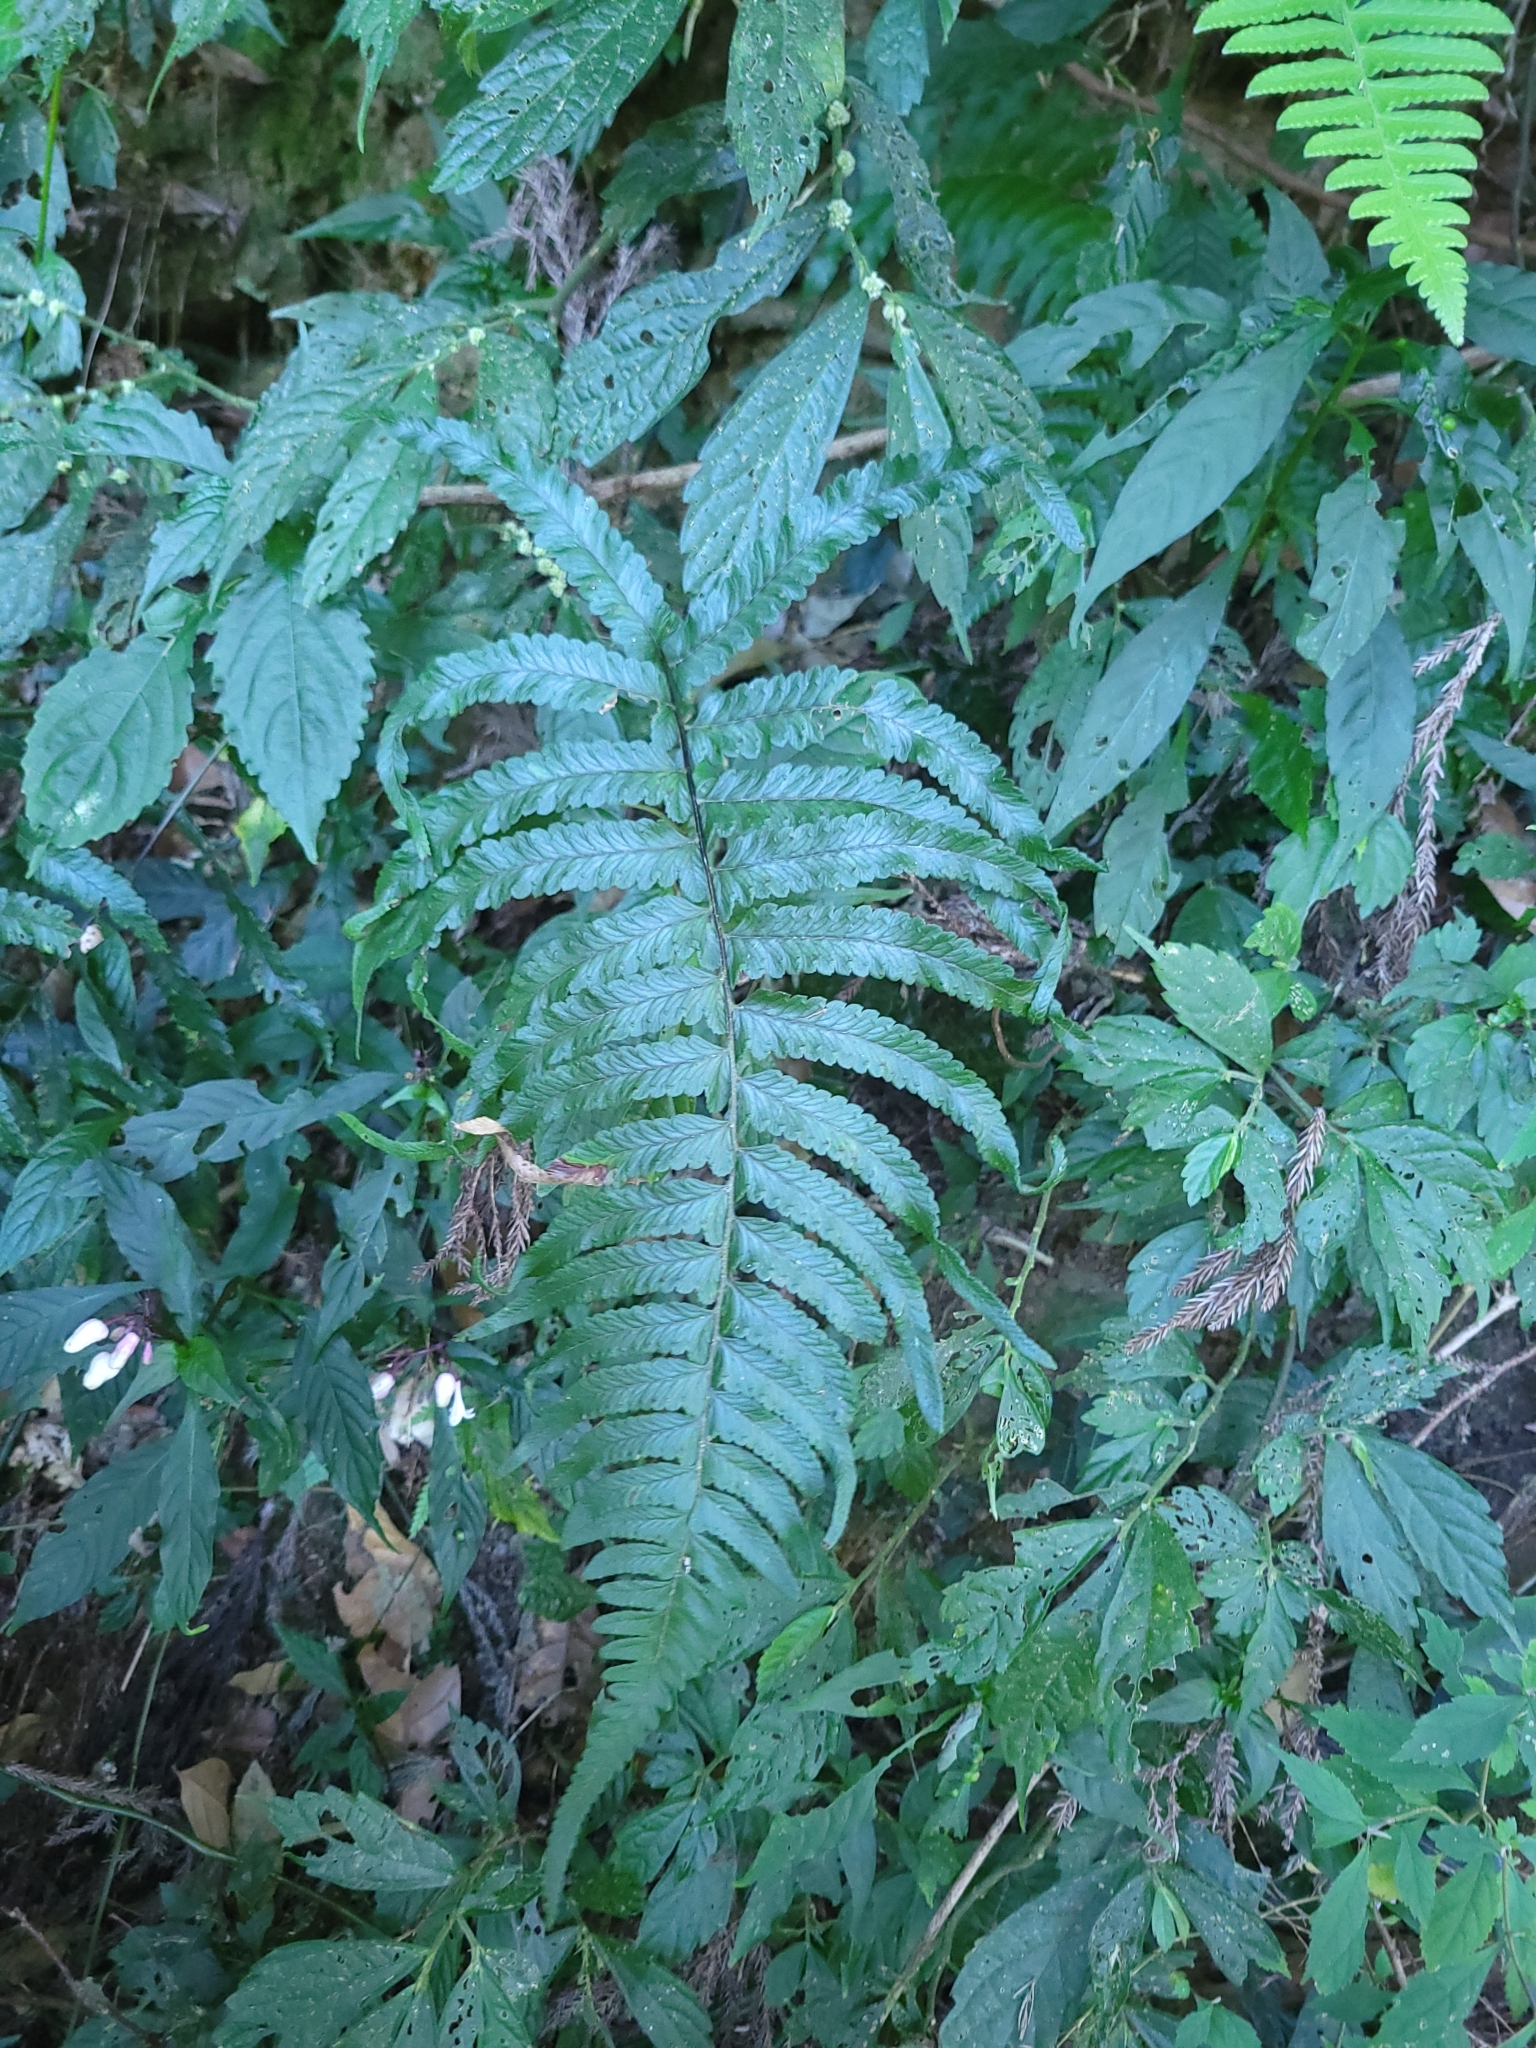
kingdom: Plantae
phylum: Tracheophyta
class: Polypodiopsida
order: Polypodiales
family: Dennstaedtiaceae
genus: Microlepia
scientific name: Microlepia marginata
